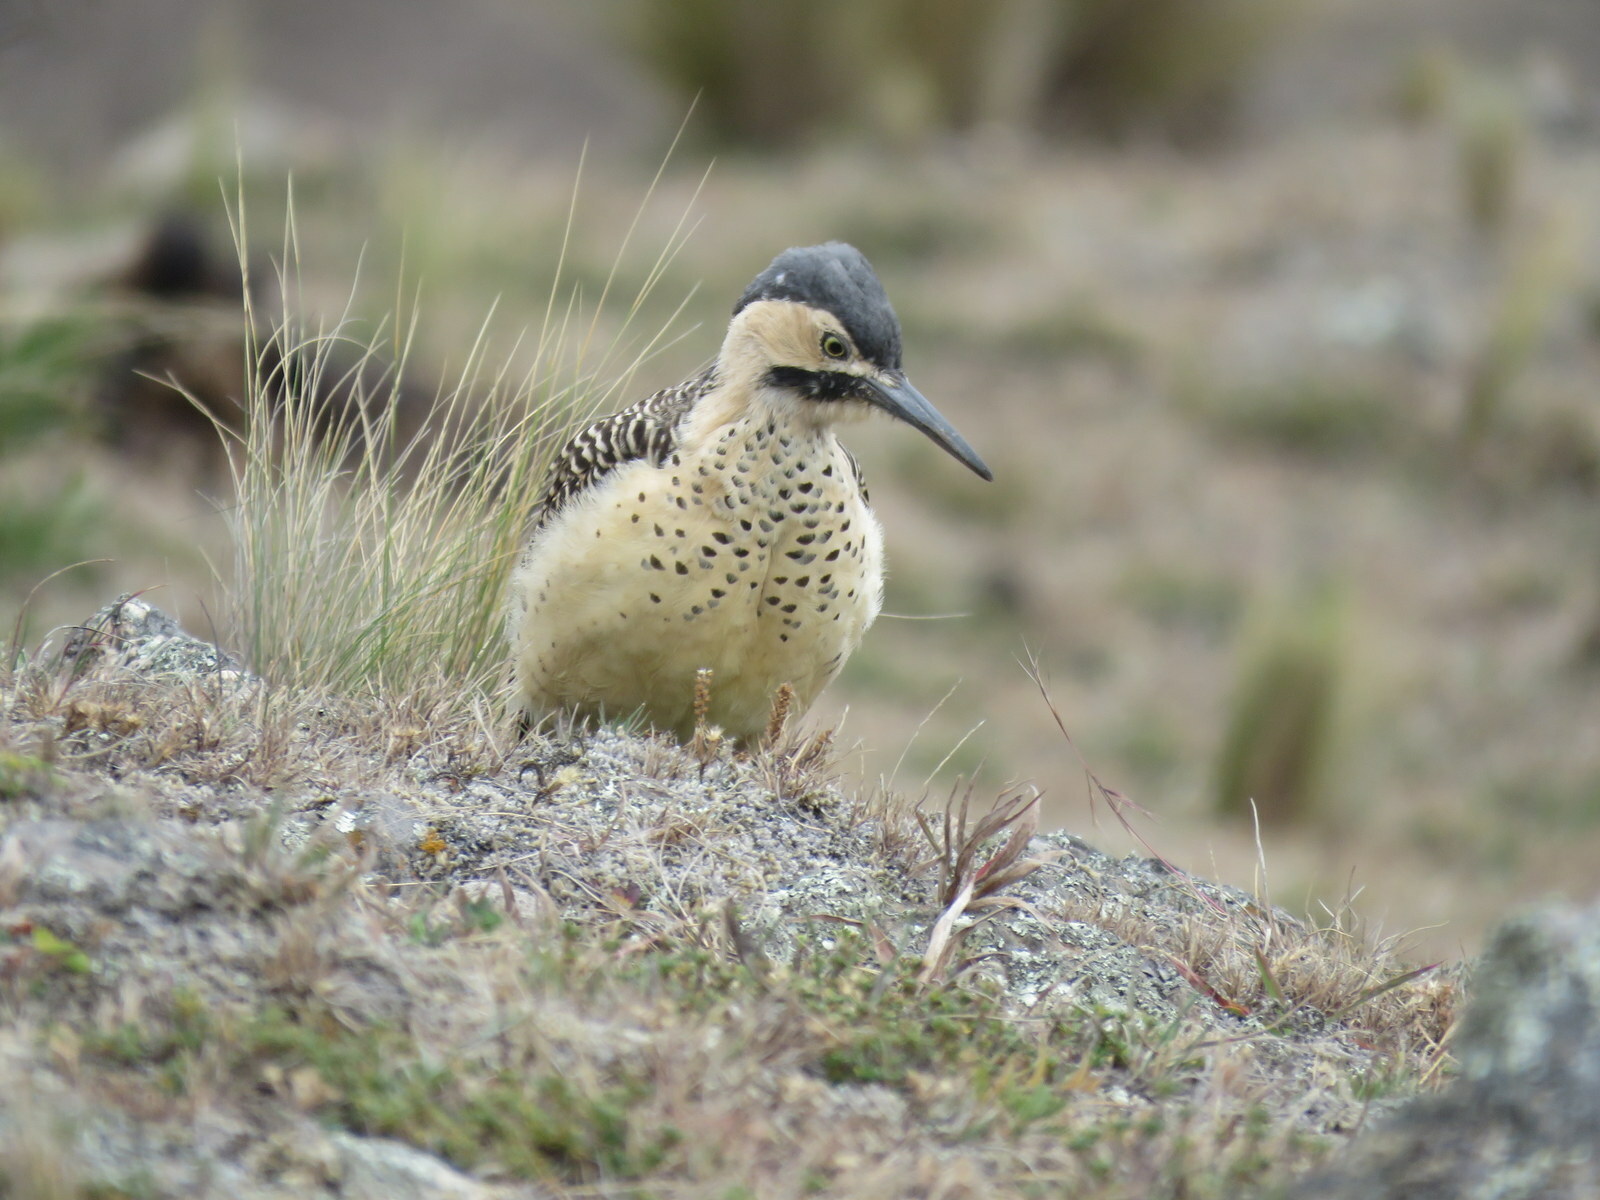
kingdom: Animalia
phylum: Chordata
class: Aves
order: Piciformes
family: Picidae
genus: Colaptes
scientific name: Colaptes rupicola
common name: Andean flicker
